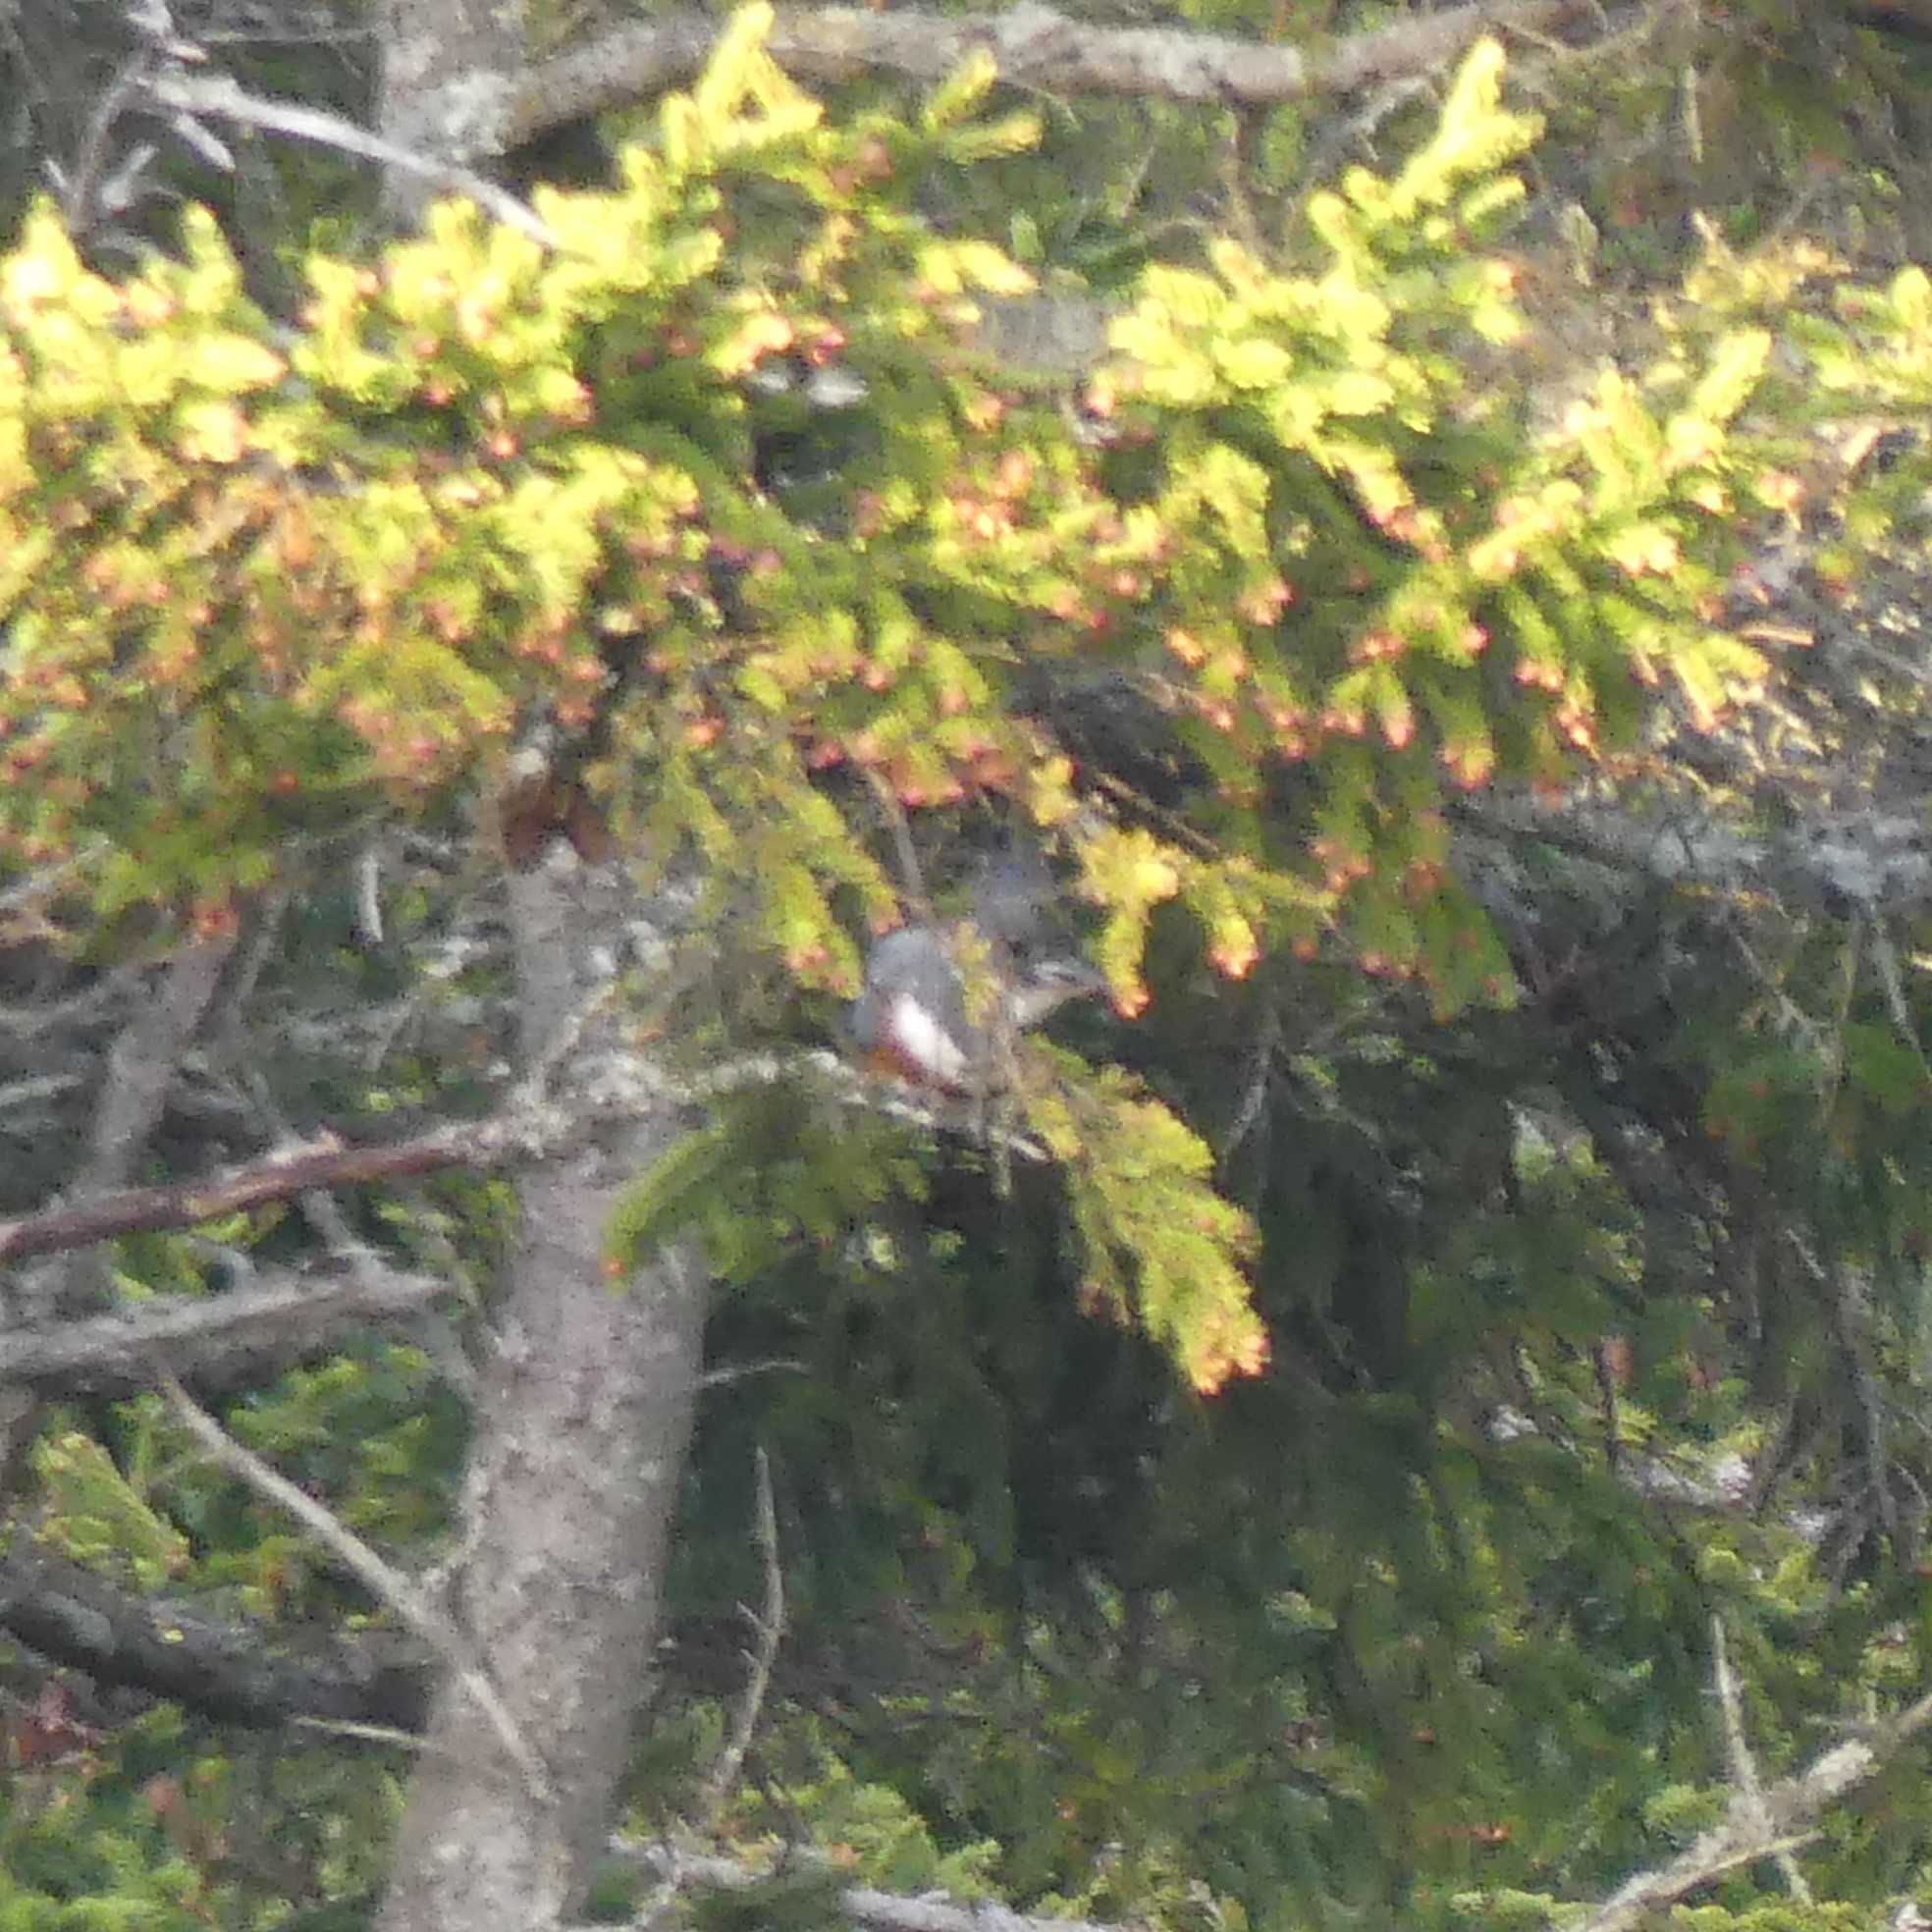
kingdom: Animalia
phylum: Chordata
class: Aves
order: Coraciiformes
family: Alcedinidae
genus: Megaceryle
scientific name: Megaceryle alcyon
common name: Belted kingfisher
